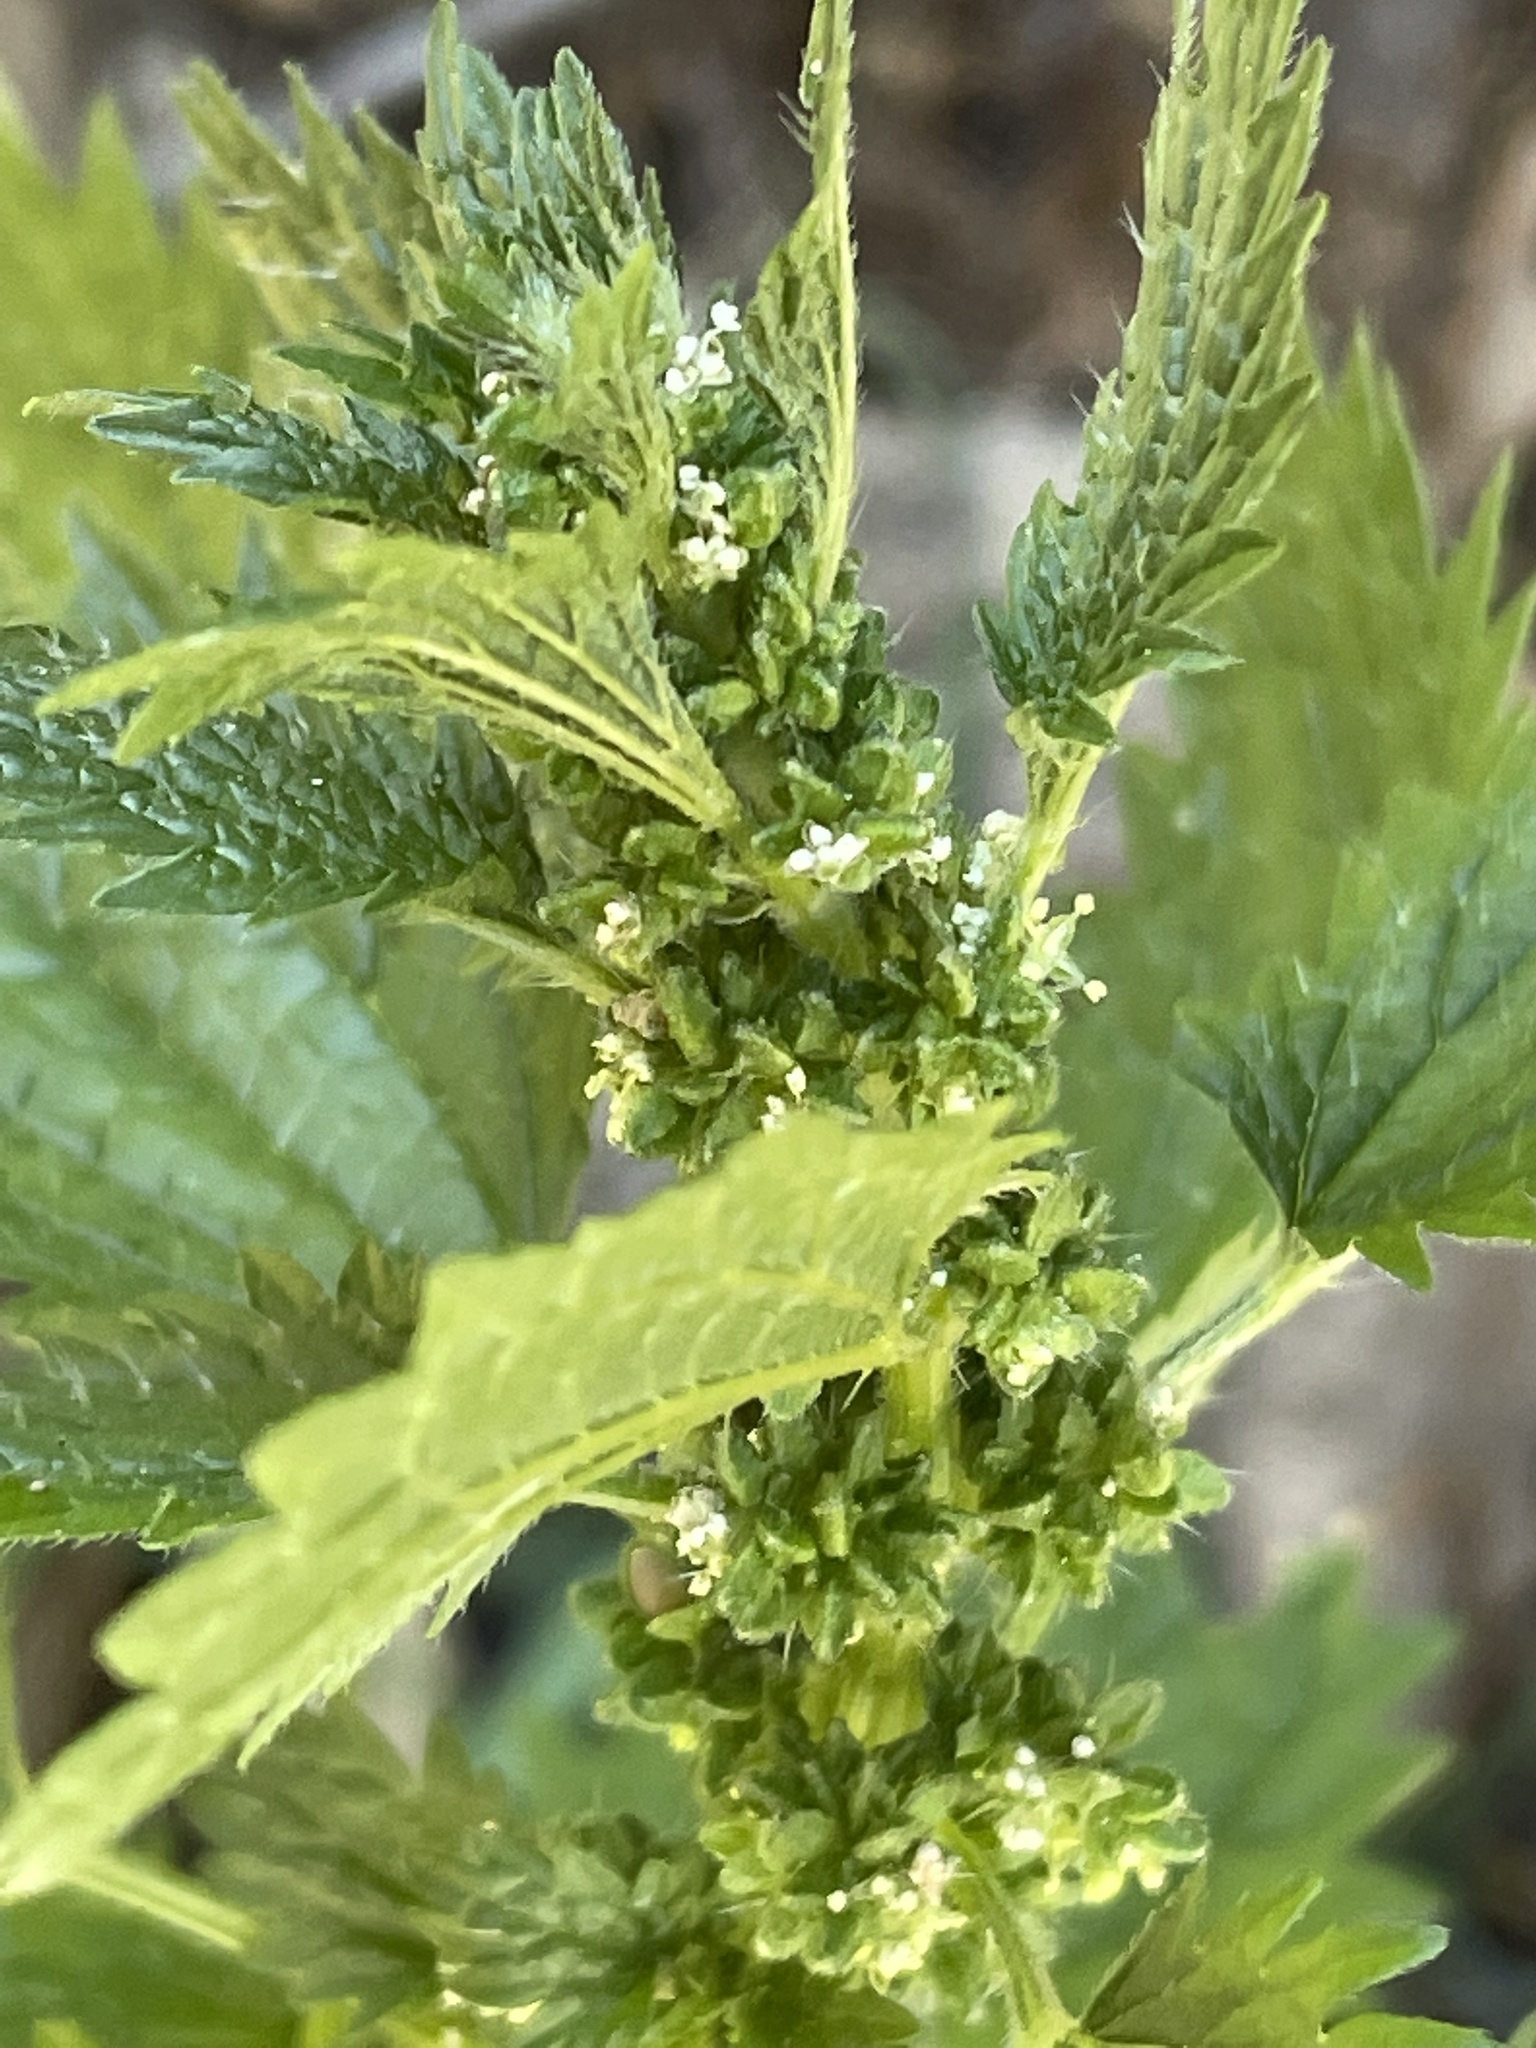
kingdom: Plantae
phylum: Tracheophyta
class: Magnoliopsida
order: Rosales
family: Urticaceae
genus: Urtica
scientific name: Urtica urens
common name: Dwarf nettle
